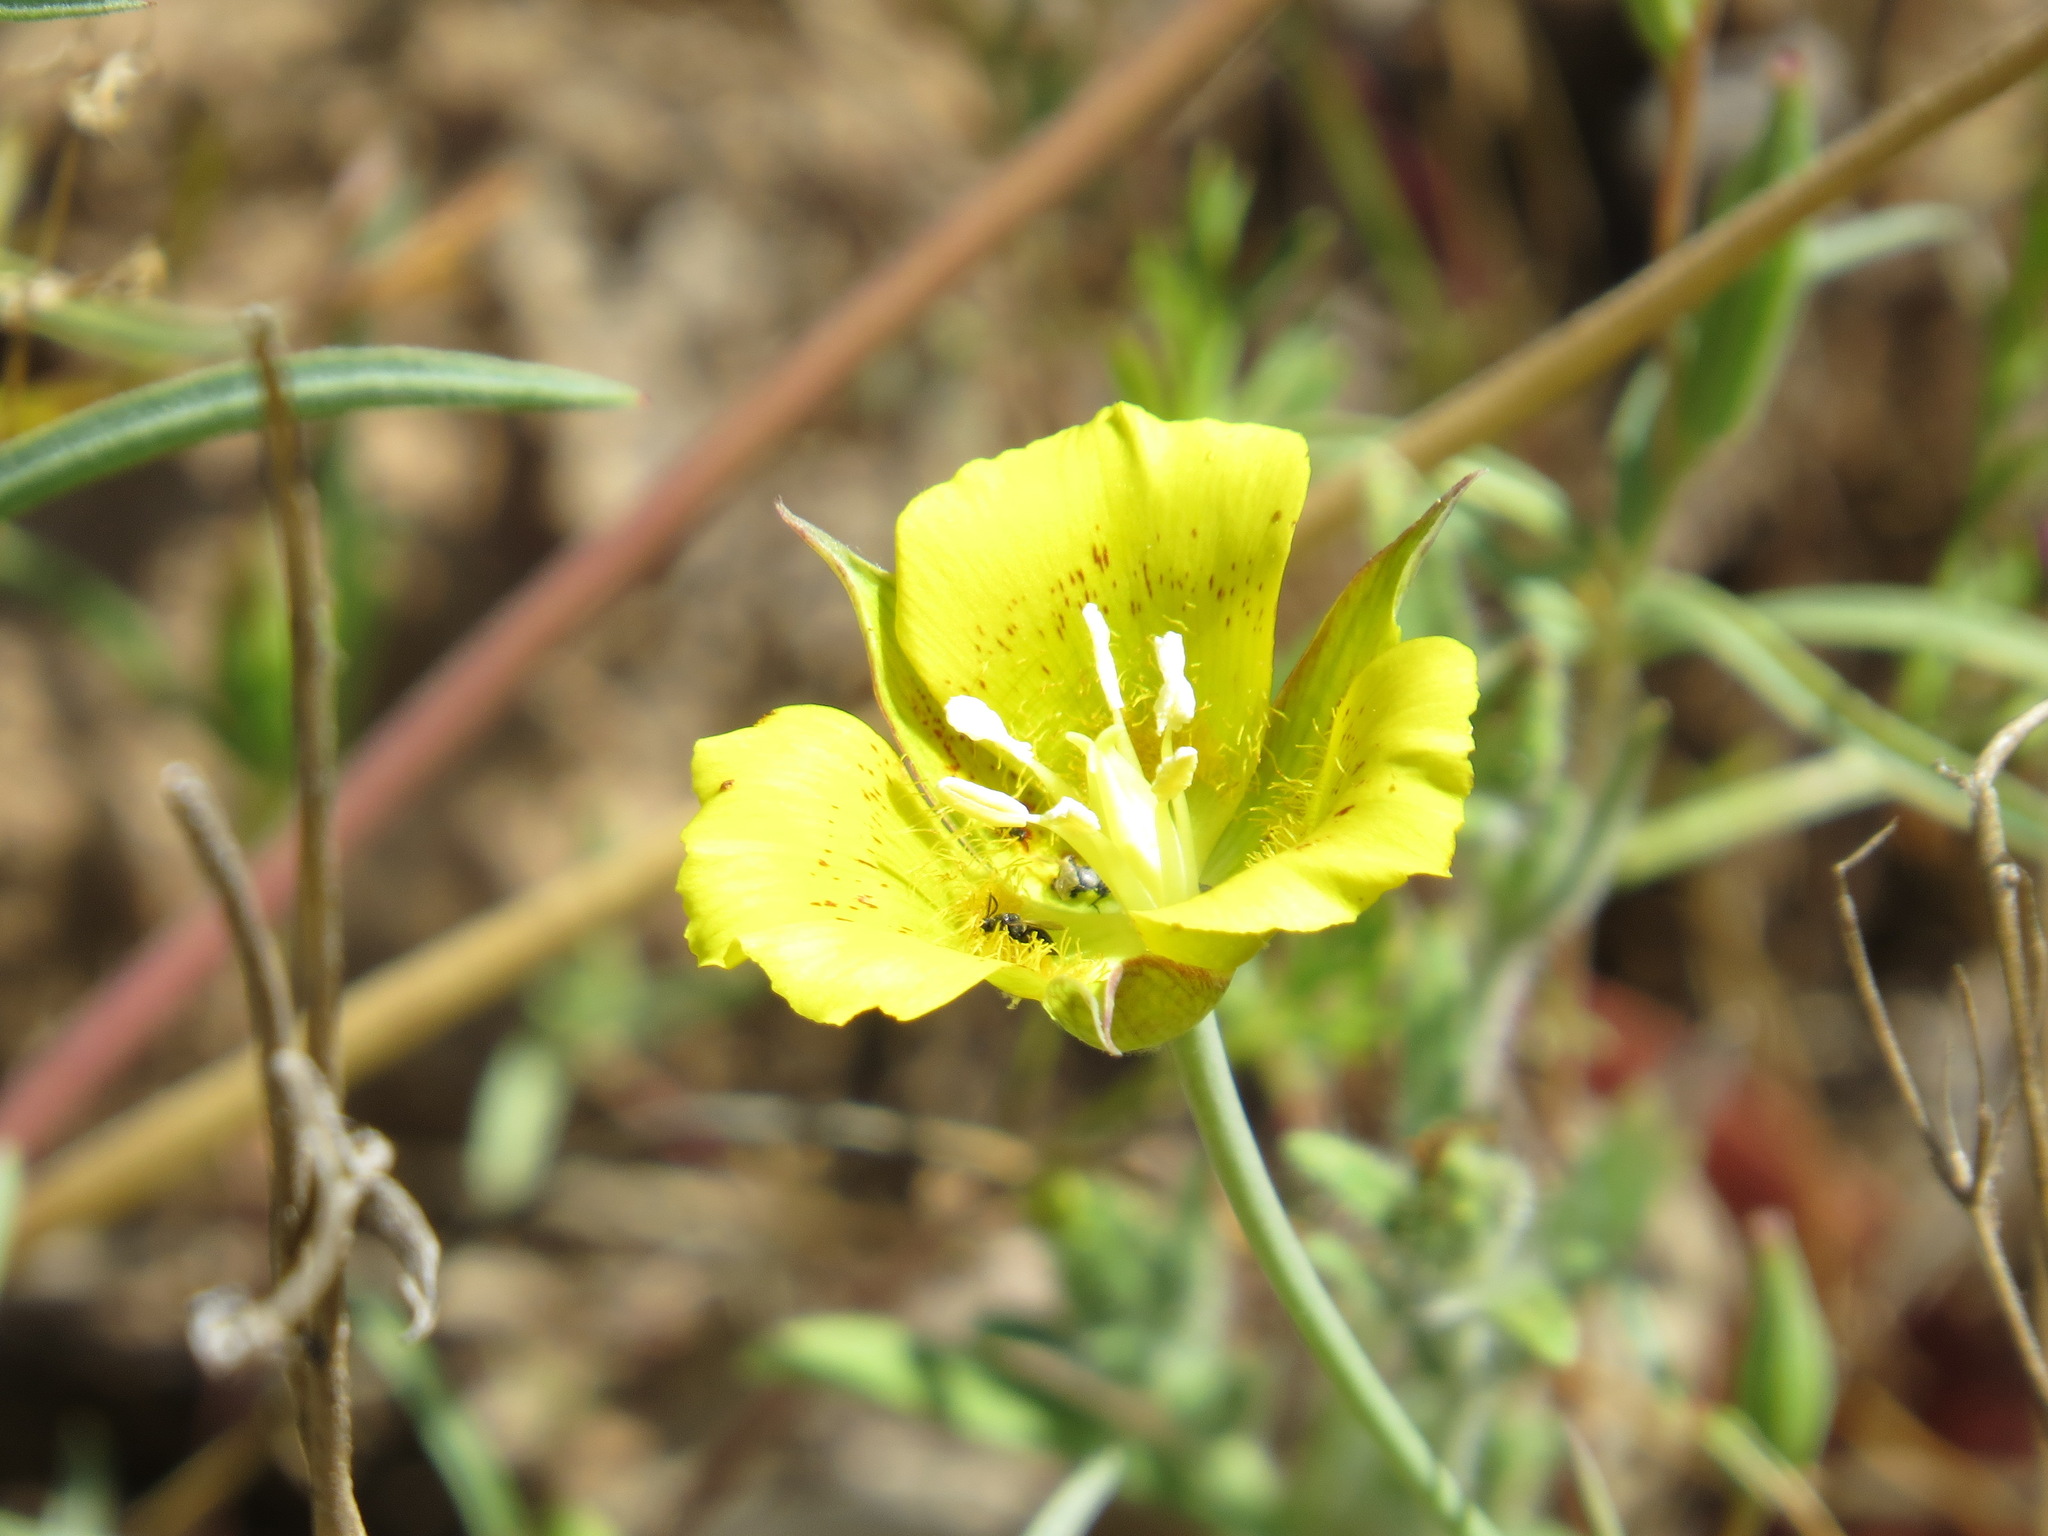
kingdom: Plantae
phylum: Tracheophyta
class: Liliopsida
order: Liliales
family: Liliaceae
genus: Calochortus
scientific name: Calochortus luteus
